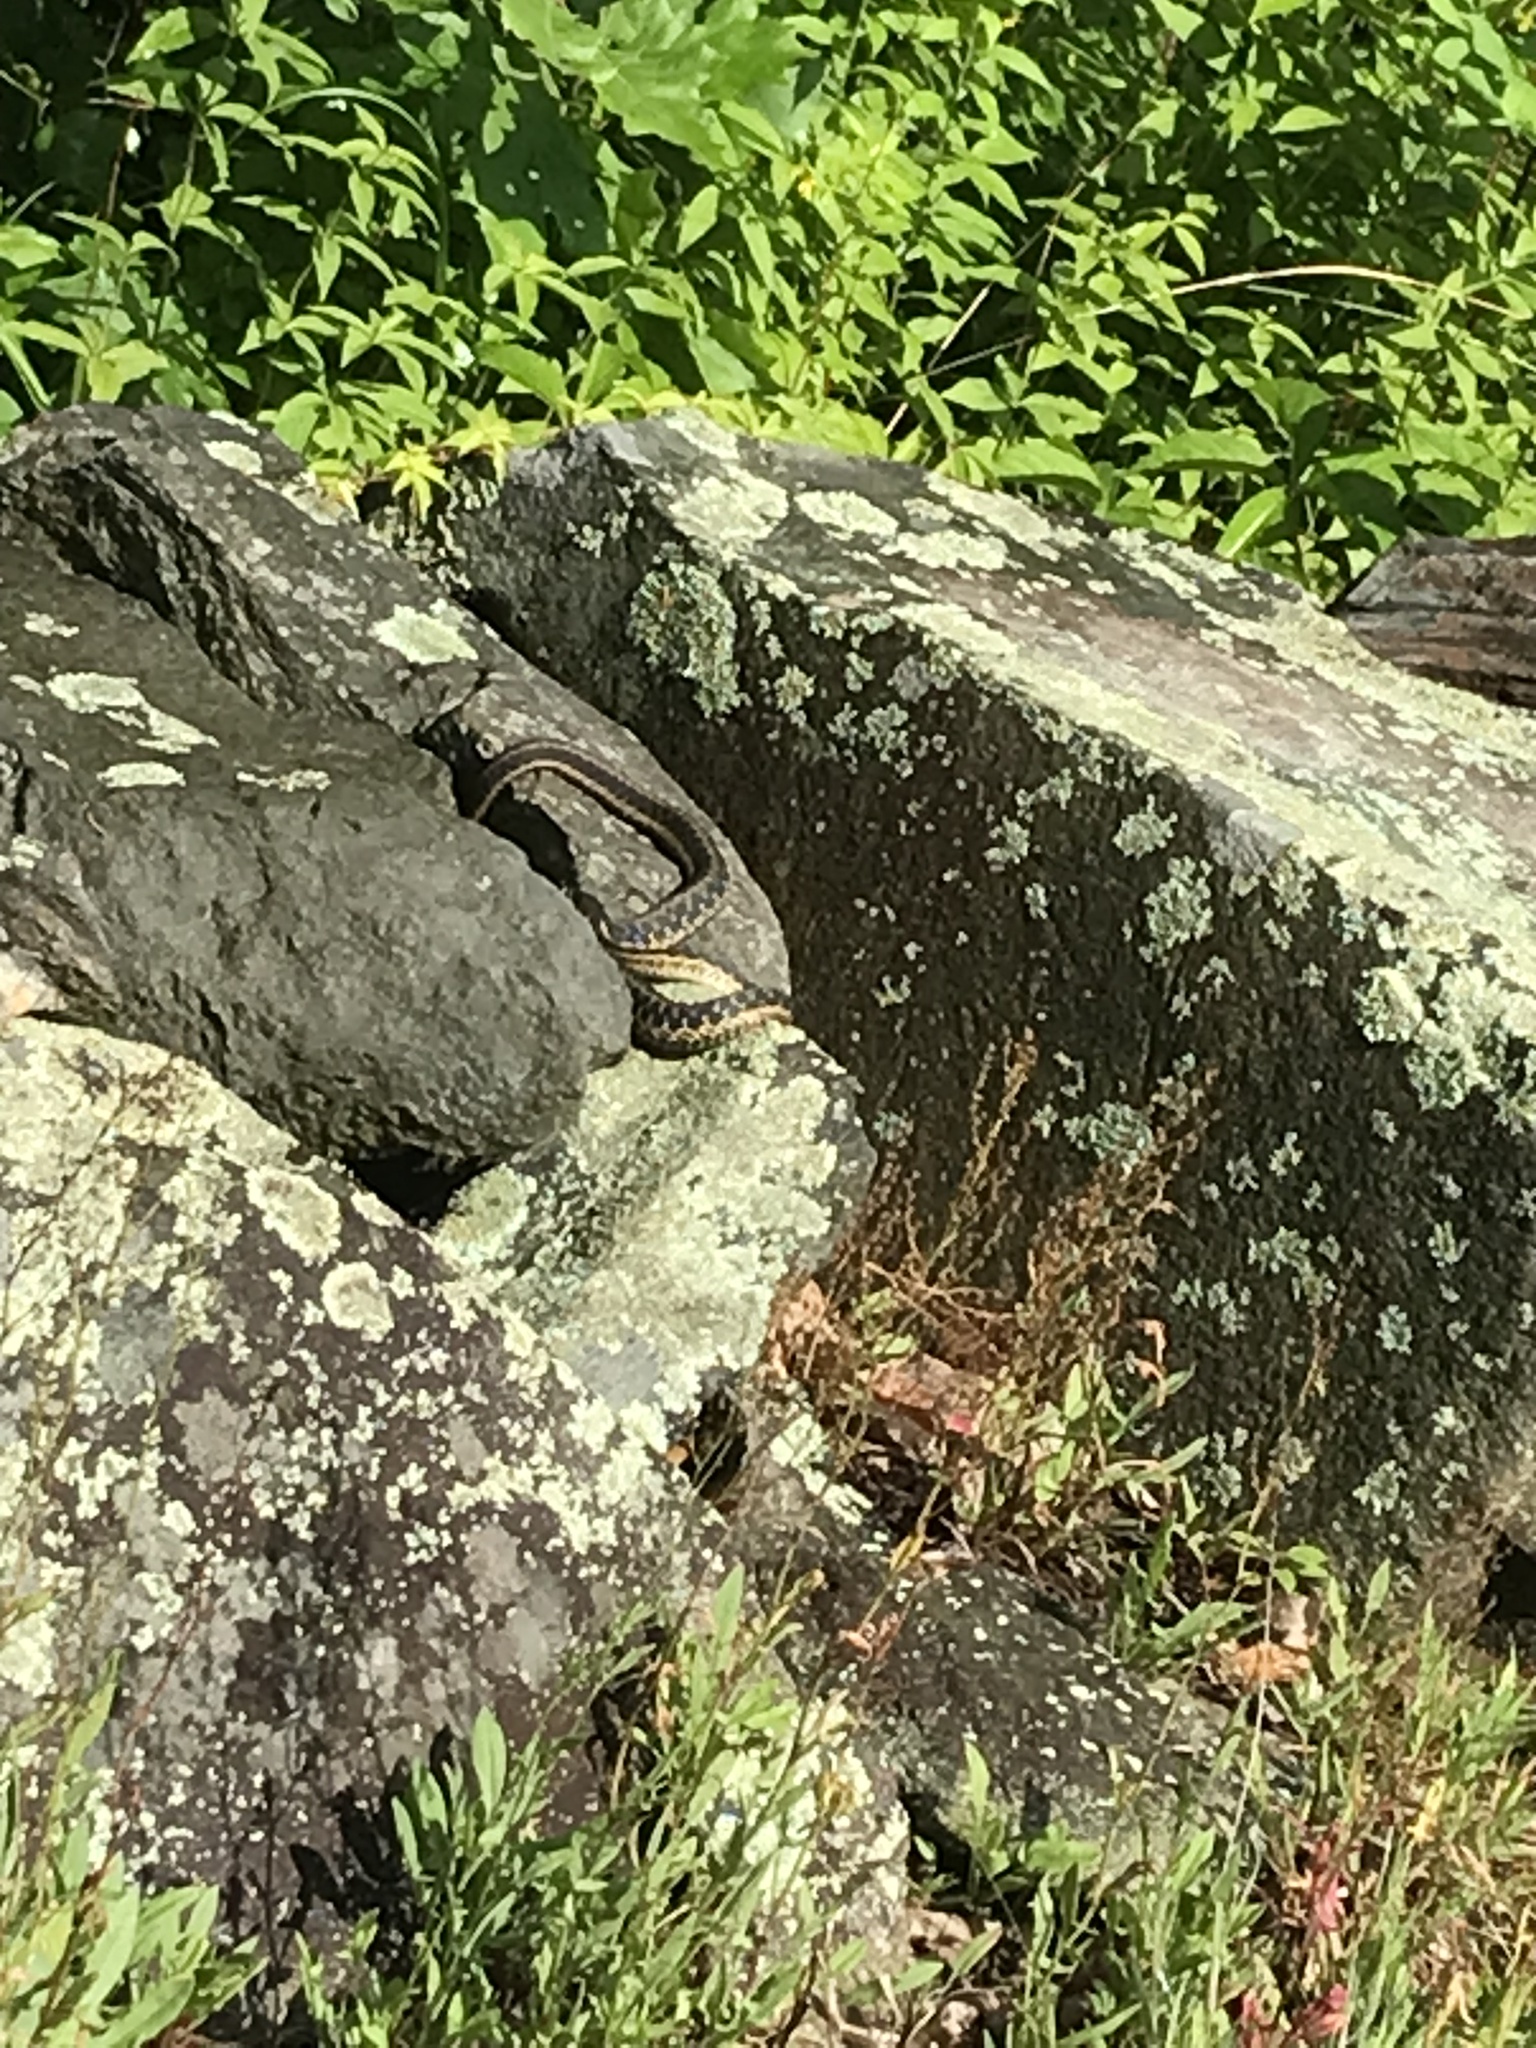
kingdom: Animalia
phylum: Chordata
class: Squamata
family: Colubridae
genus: Thamnophis
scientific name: Thamnophis sirtalis
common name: Common garter snake
